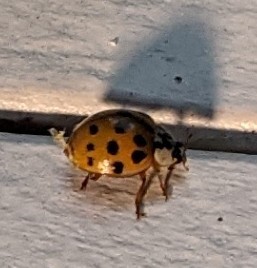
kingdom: Animalia
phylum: Arthropoda
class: Insecta
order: Coleoptera
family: Coccinellidae
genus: Harmonia
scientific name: Harmonia axyridis
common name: Harlequin ladybird
